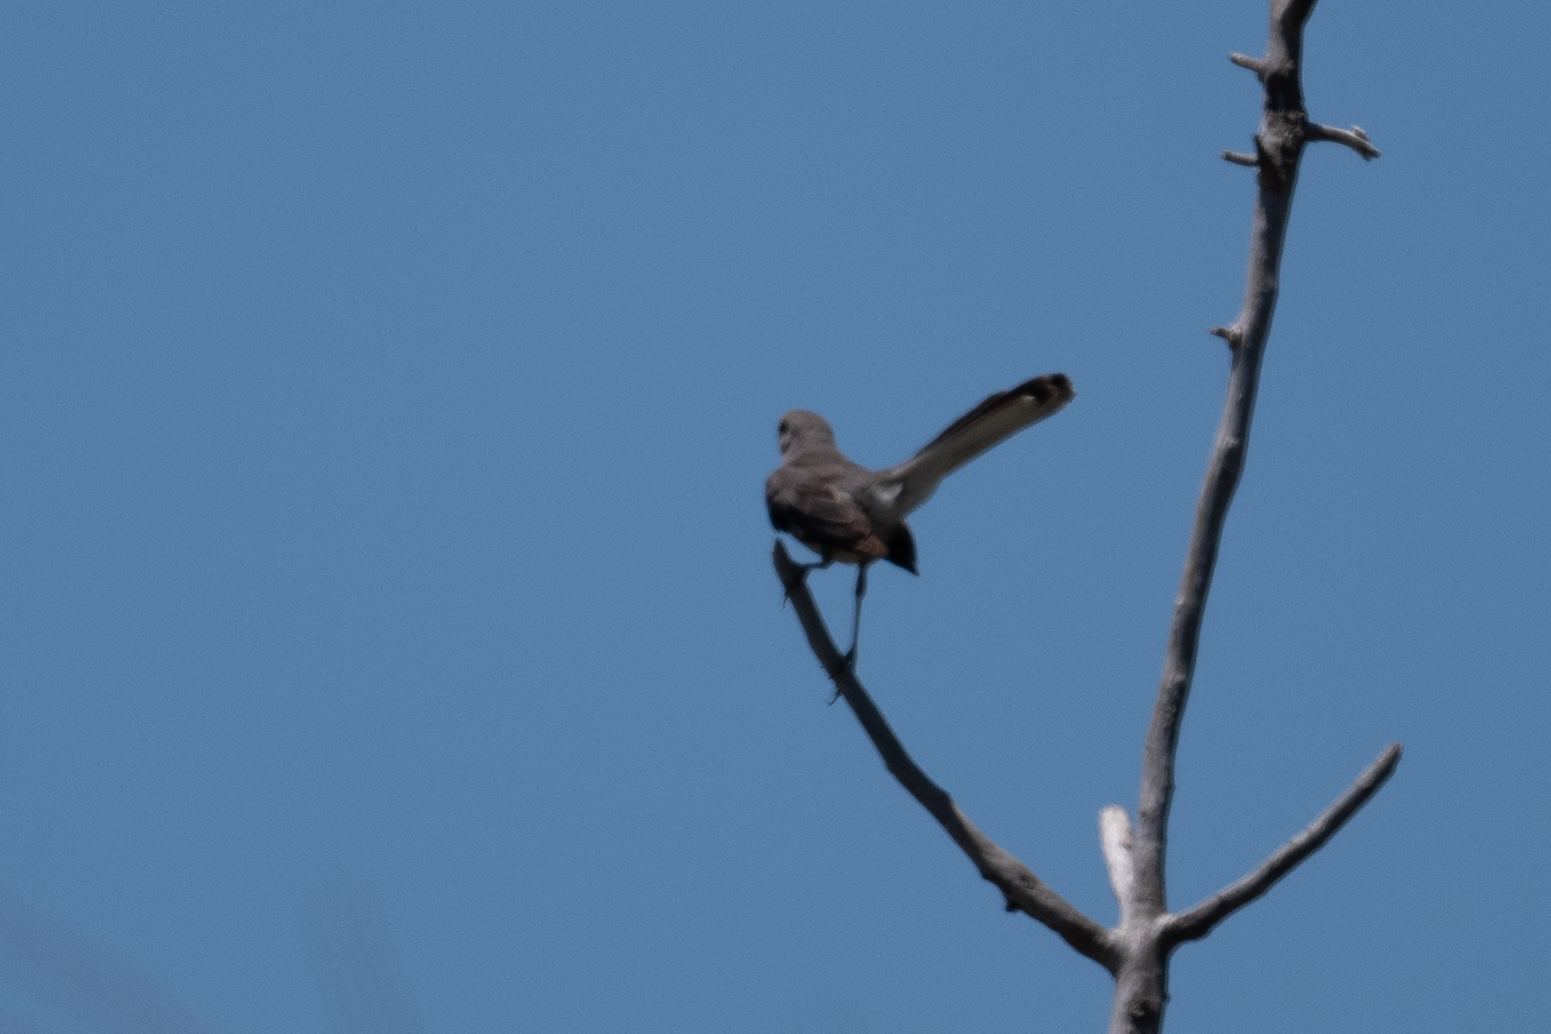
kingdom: Animalia
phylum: Chordata
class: Aves
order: Passeriformes
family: Mimidae
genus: Mimus
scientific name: Mimus polyglottos
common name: Northern mockingbird
